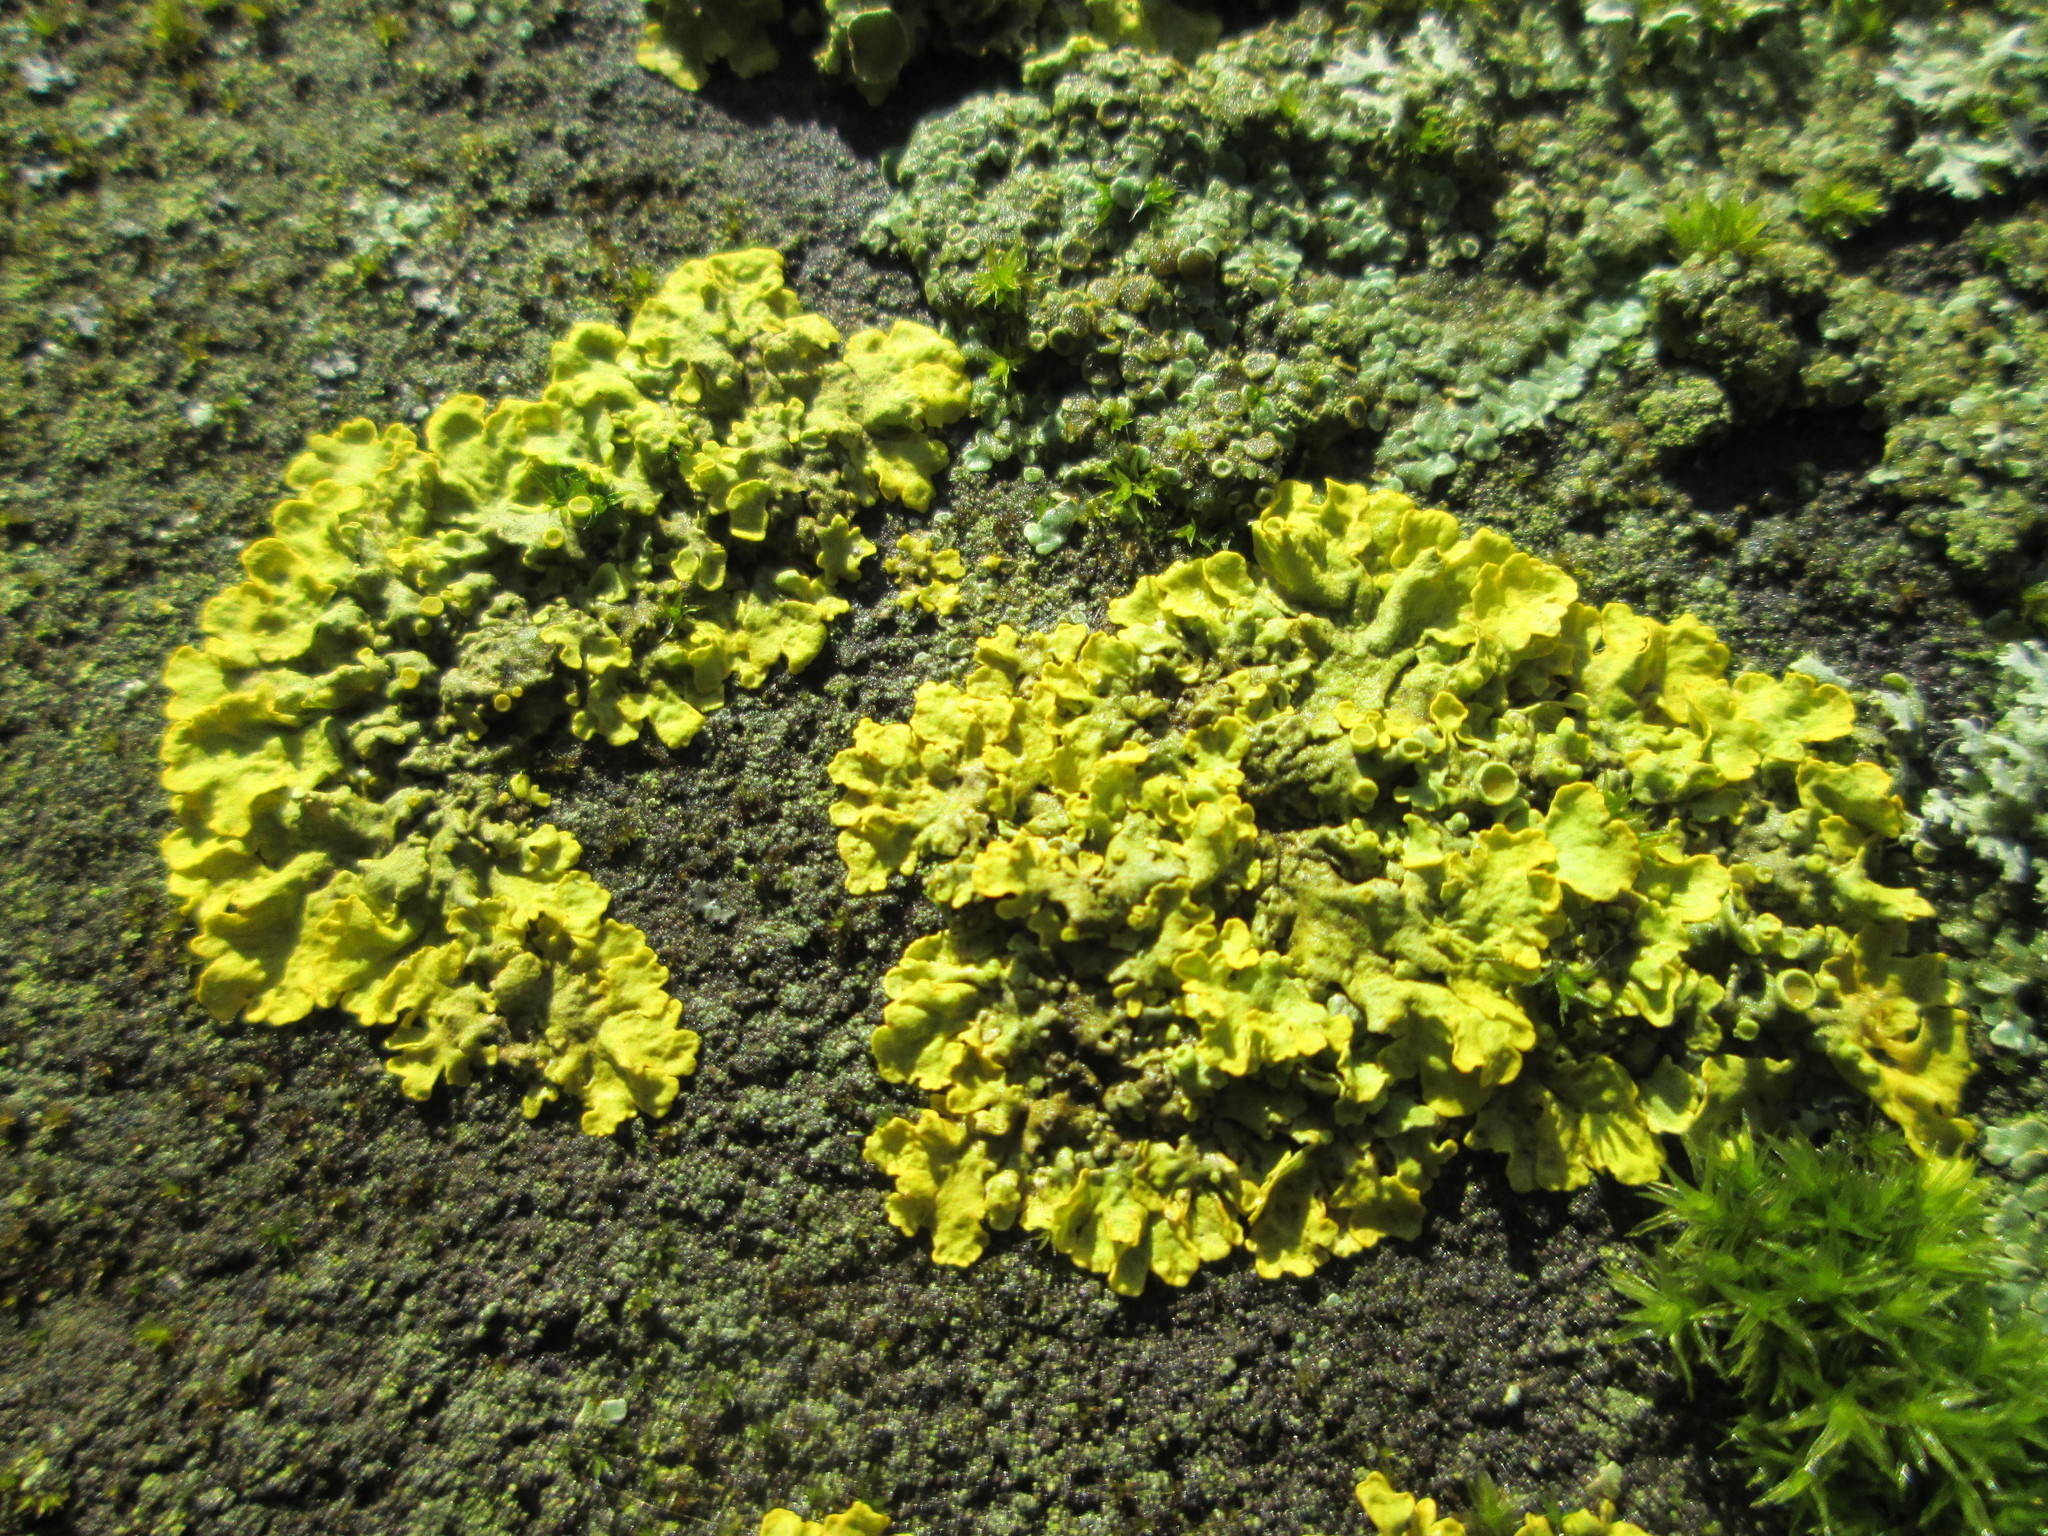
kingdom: Fungi
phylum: Ascomycota
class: Lecanoromycetes
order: Teloschistales
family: Teloschistaceae
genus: Xanthoria
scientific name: Xanthoria parietina
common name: Common orange lichen
